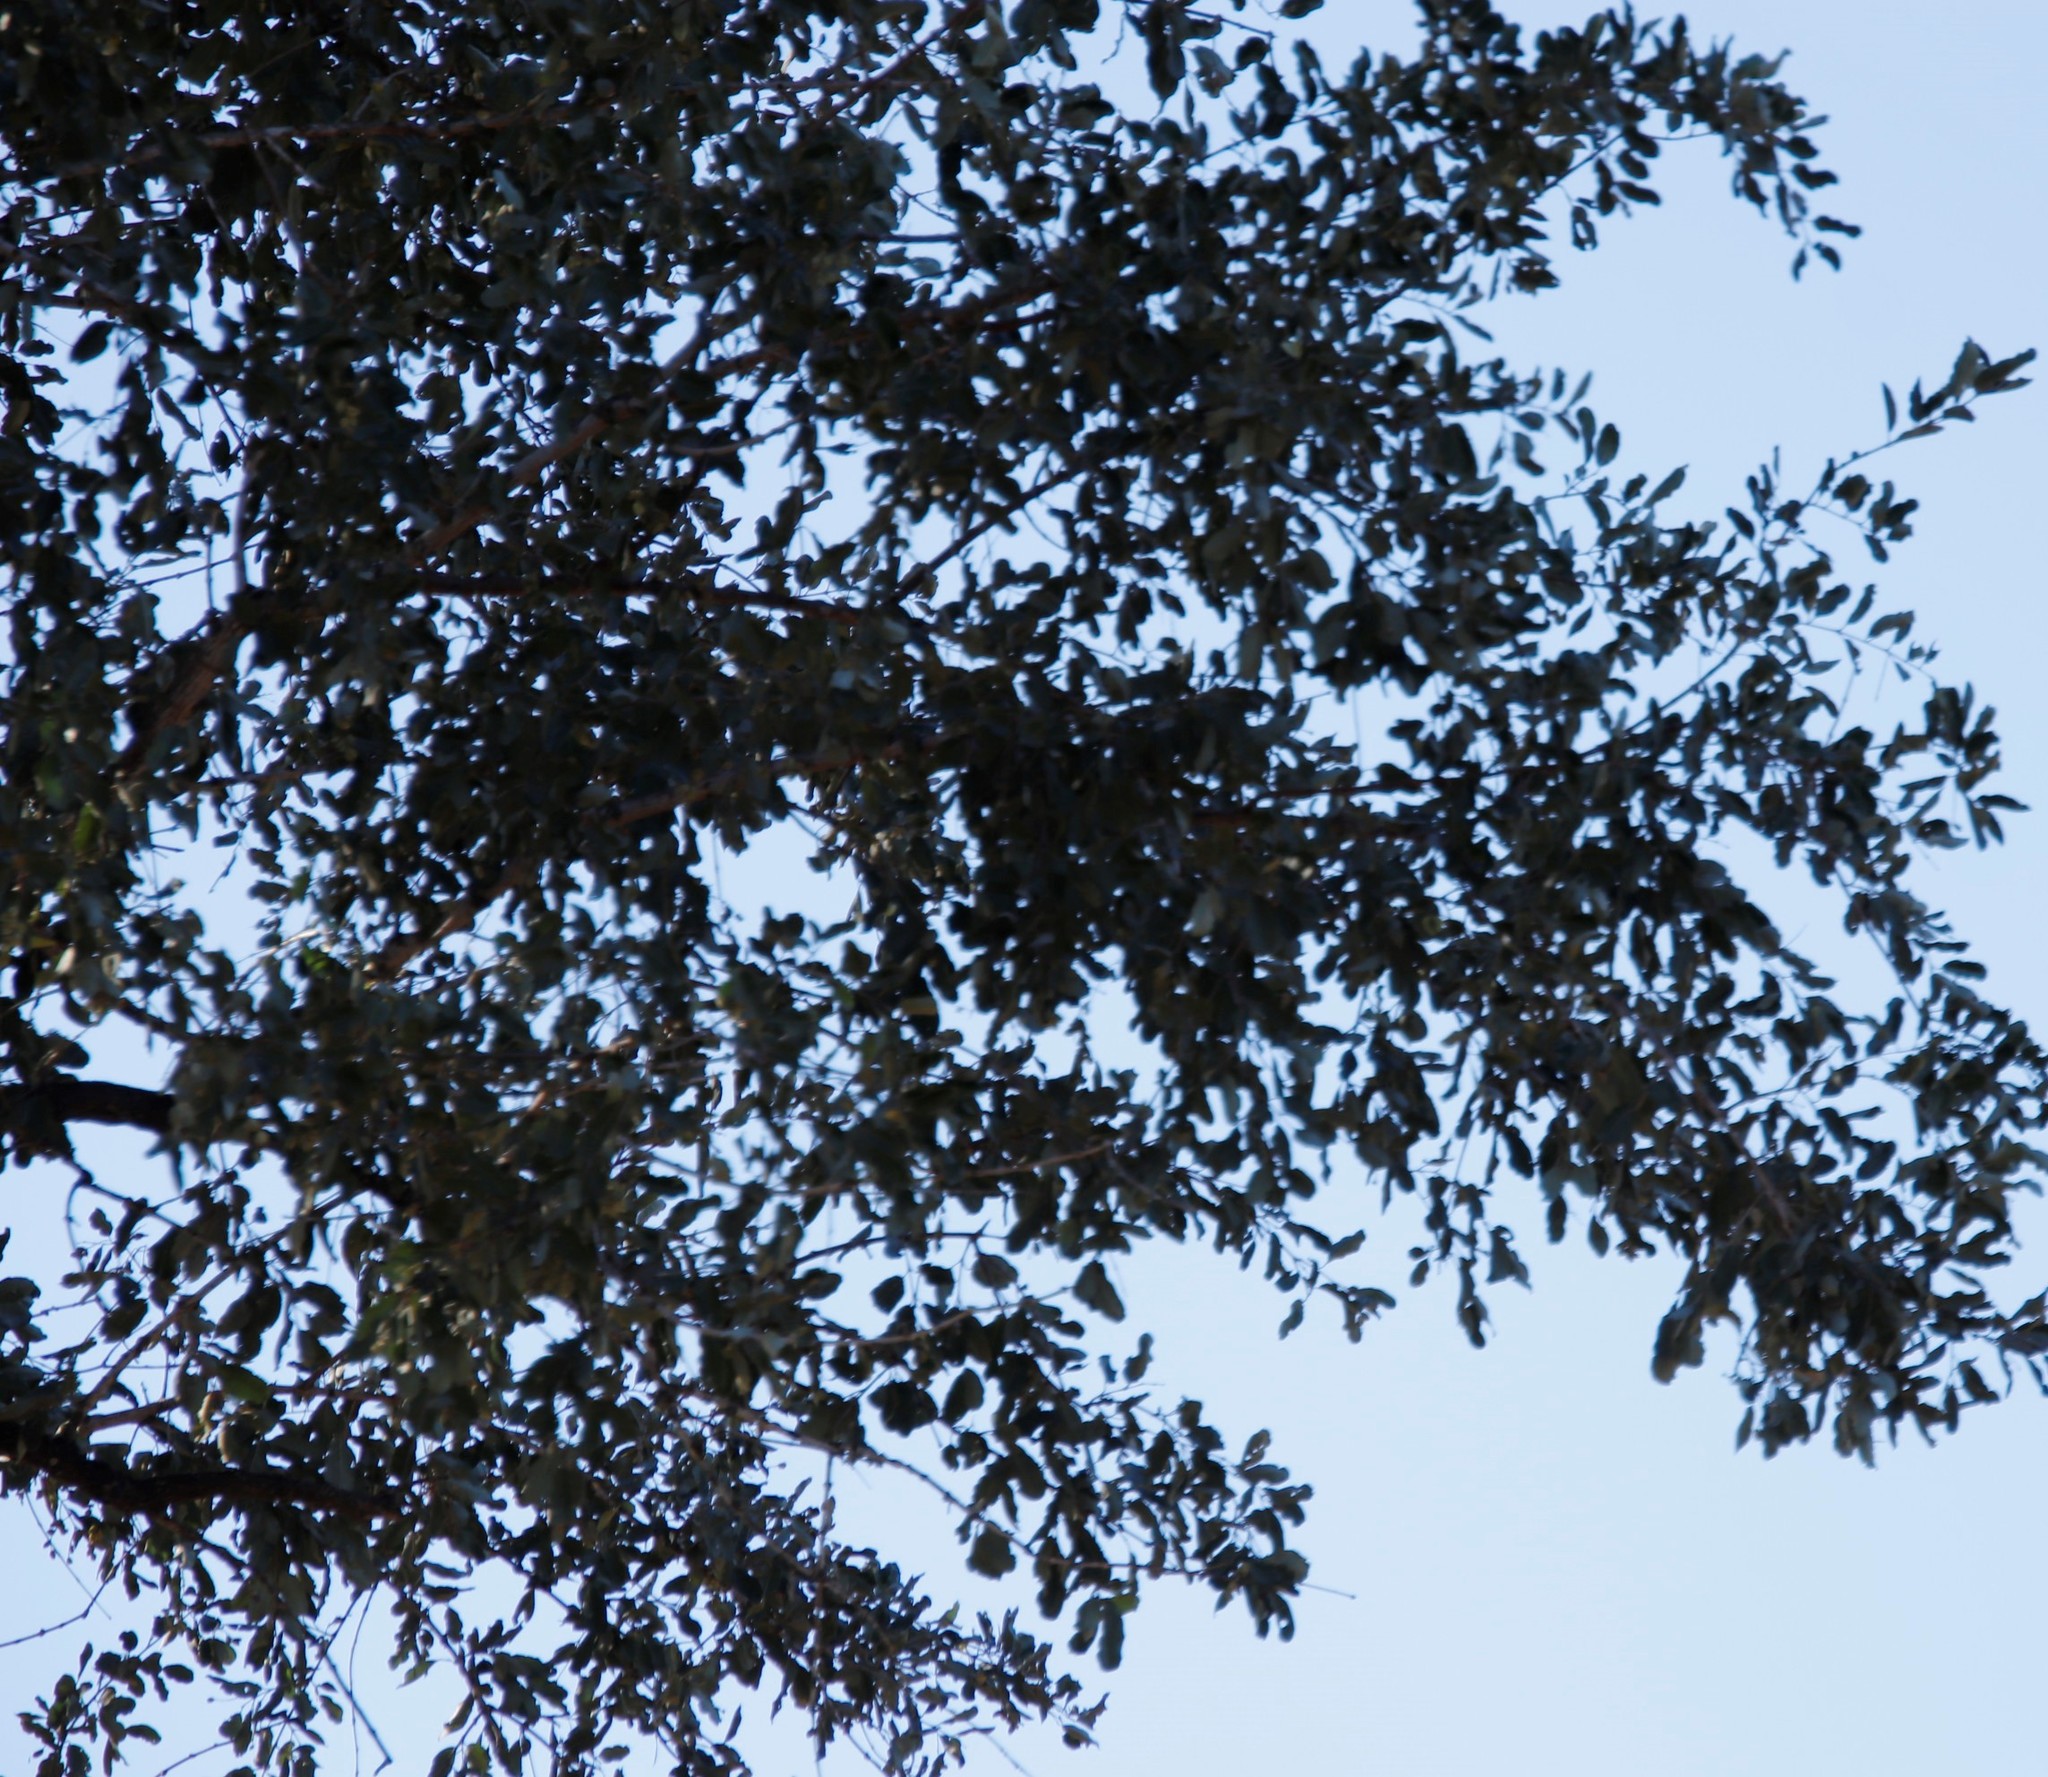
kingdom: Plantae
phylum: Tracheophyta
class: Magnoliopsida
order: Myrtales
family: Combretaceae
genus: Combretum
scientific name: Combretum imberbe
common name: Leadwood
